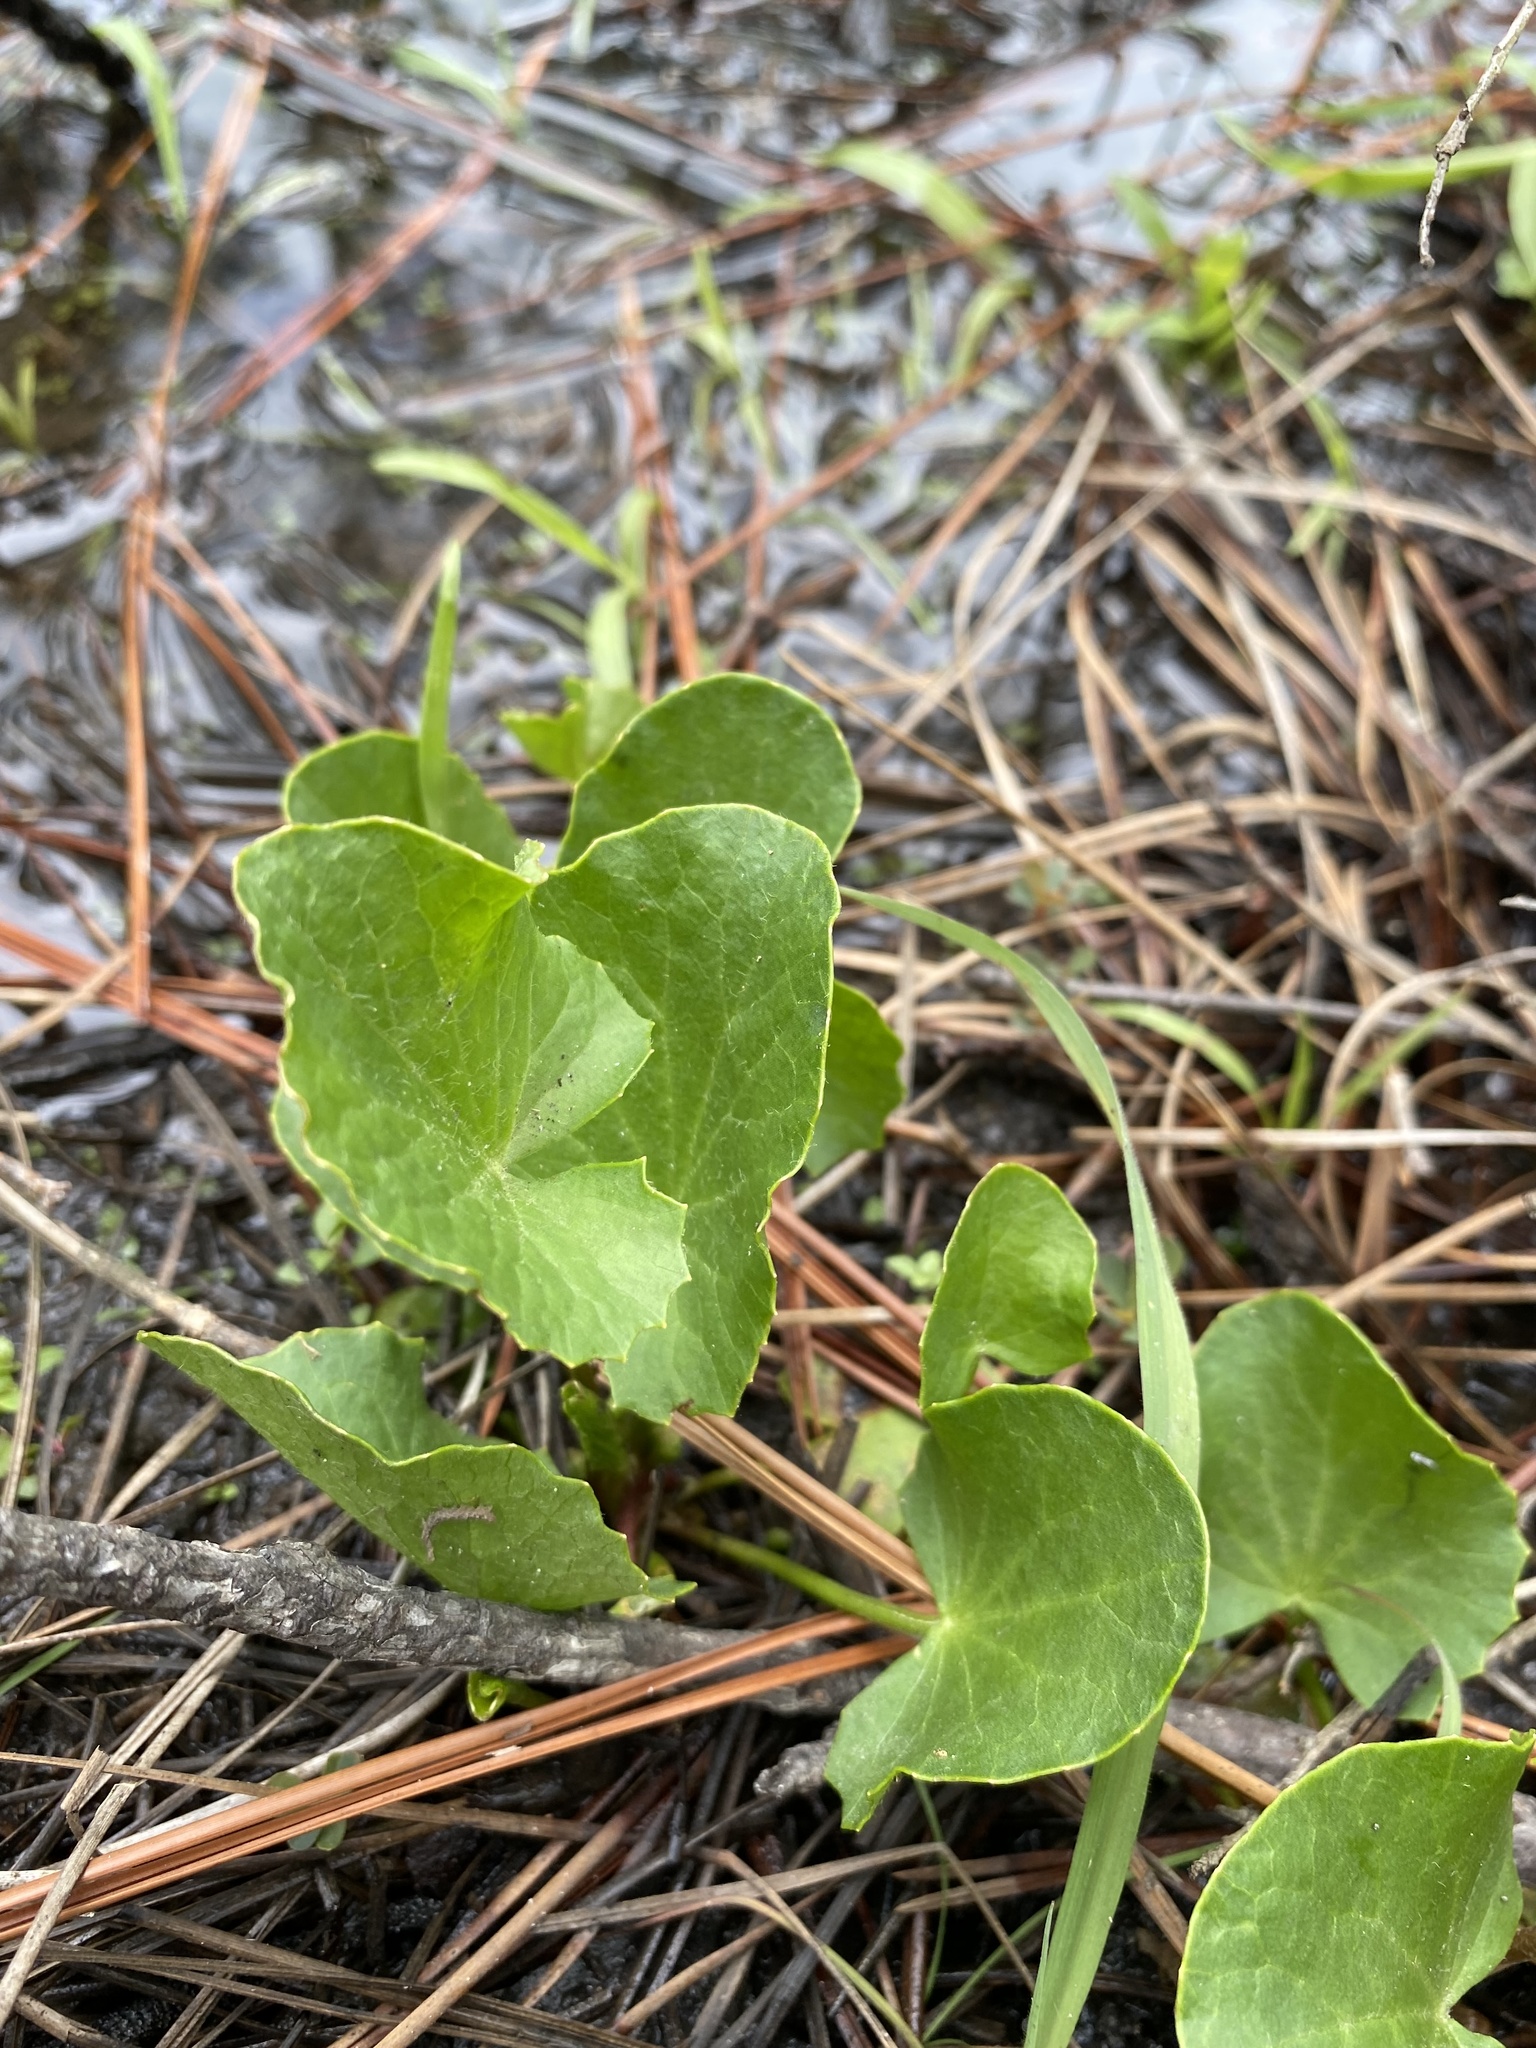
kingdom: Plantae
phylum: Tracheophyta
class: Magnoliopsida
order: Apiales
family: Apiaceae
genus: Centella
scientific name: Centella erecta
